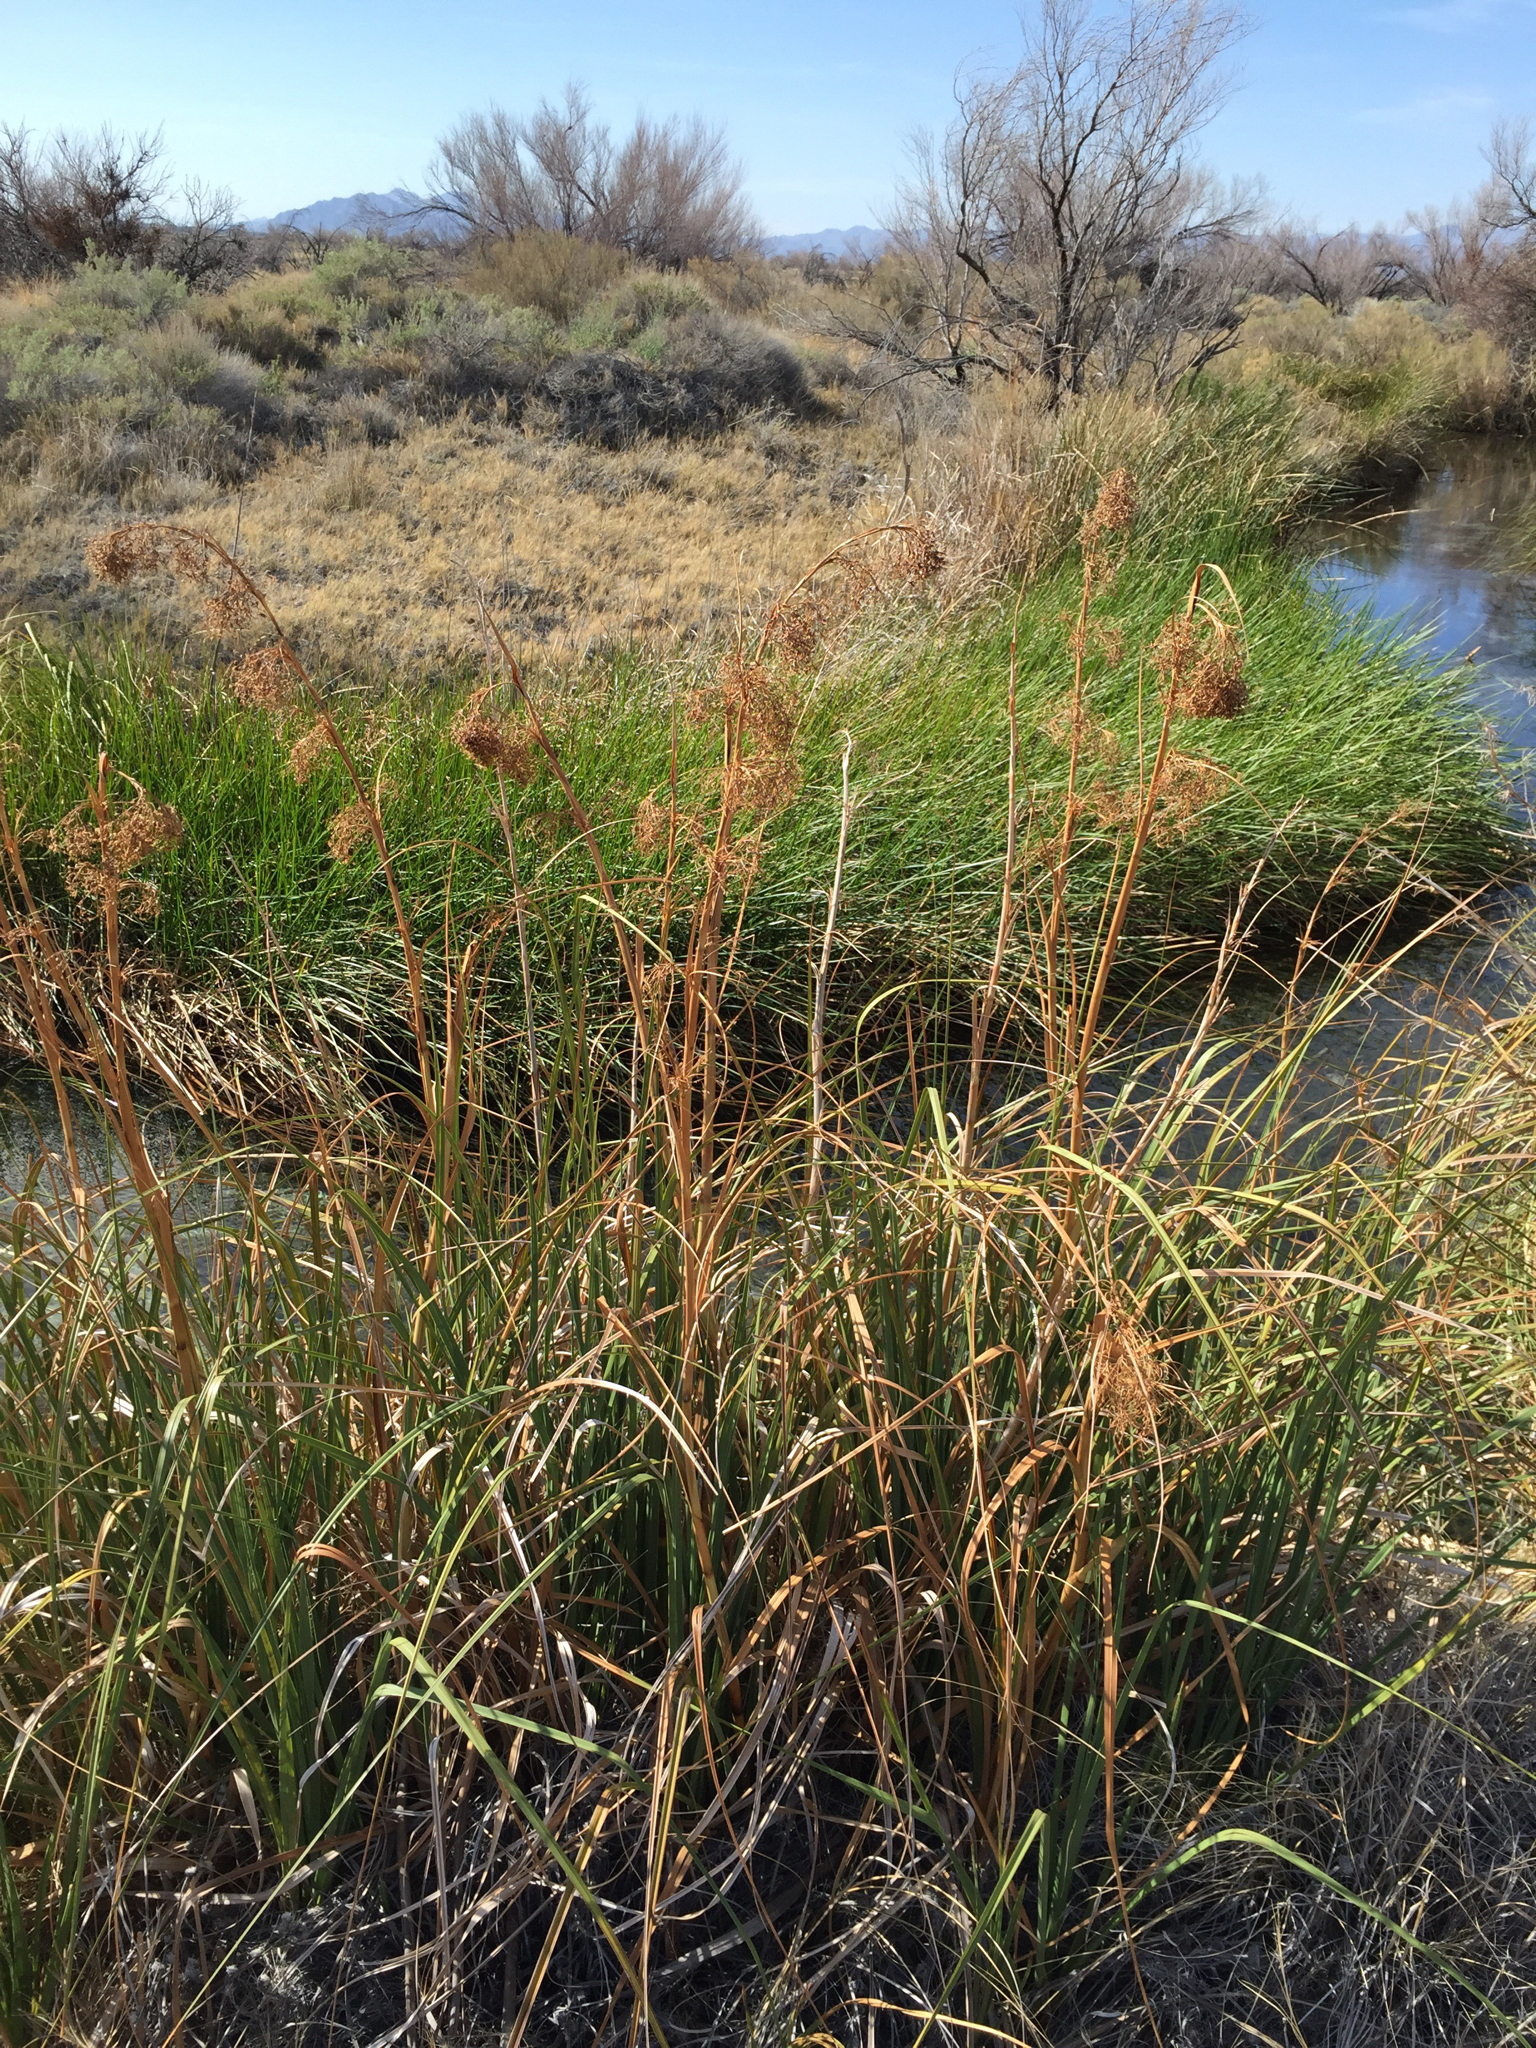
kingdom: Plantae
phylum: Tracheophyta
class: Liliopsida
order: Poales
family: Cyperaceae
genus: Cladium
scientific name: Cladium mariscus
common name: Great fen-sedge
